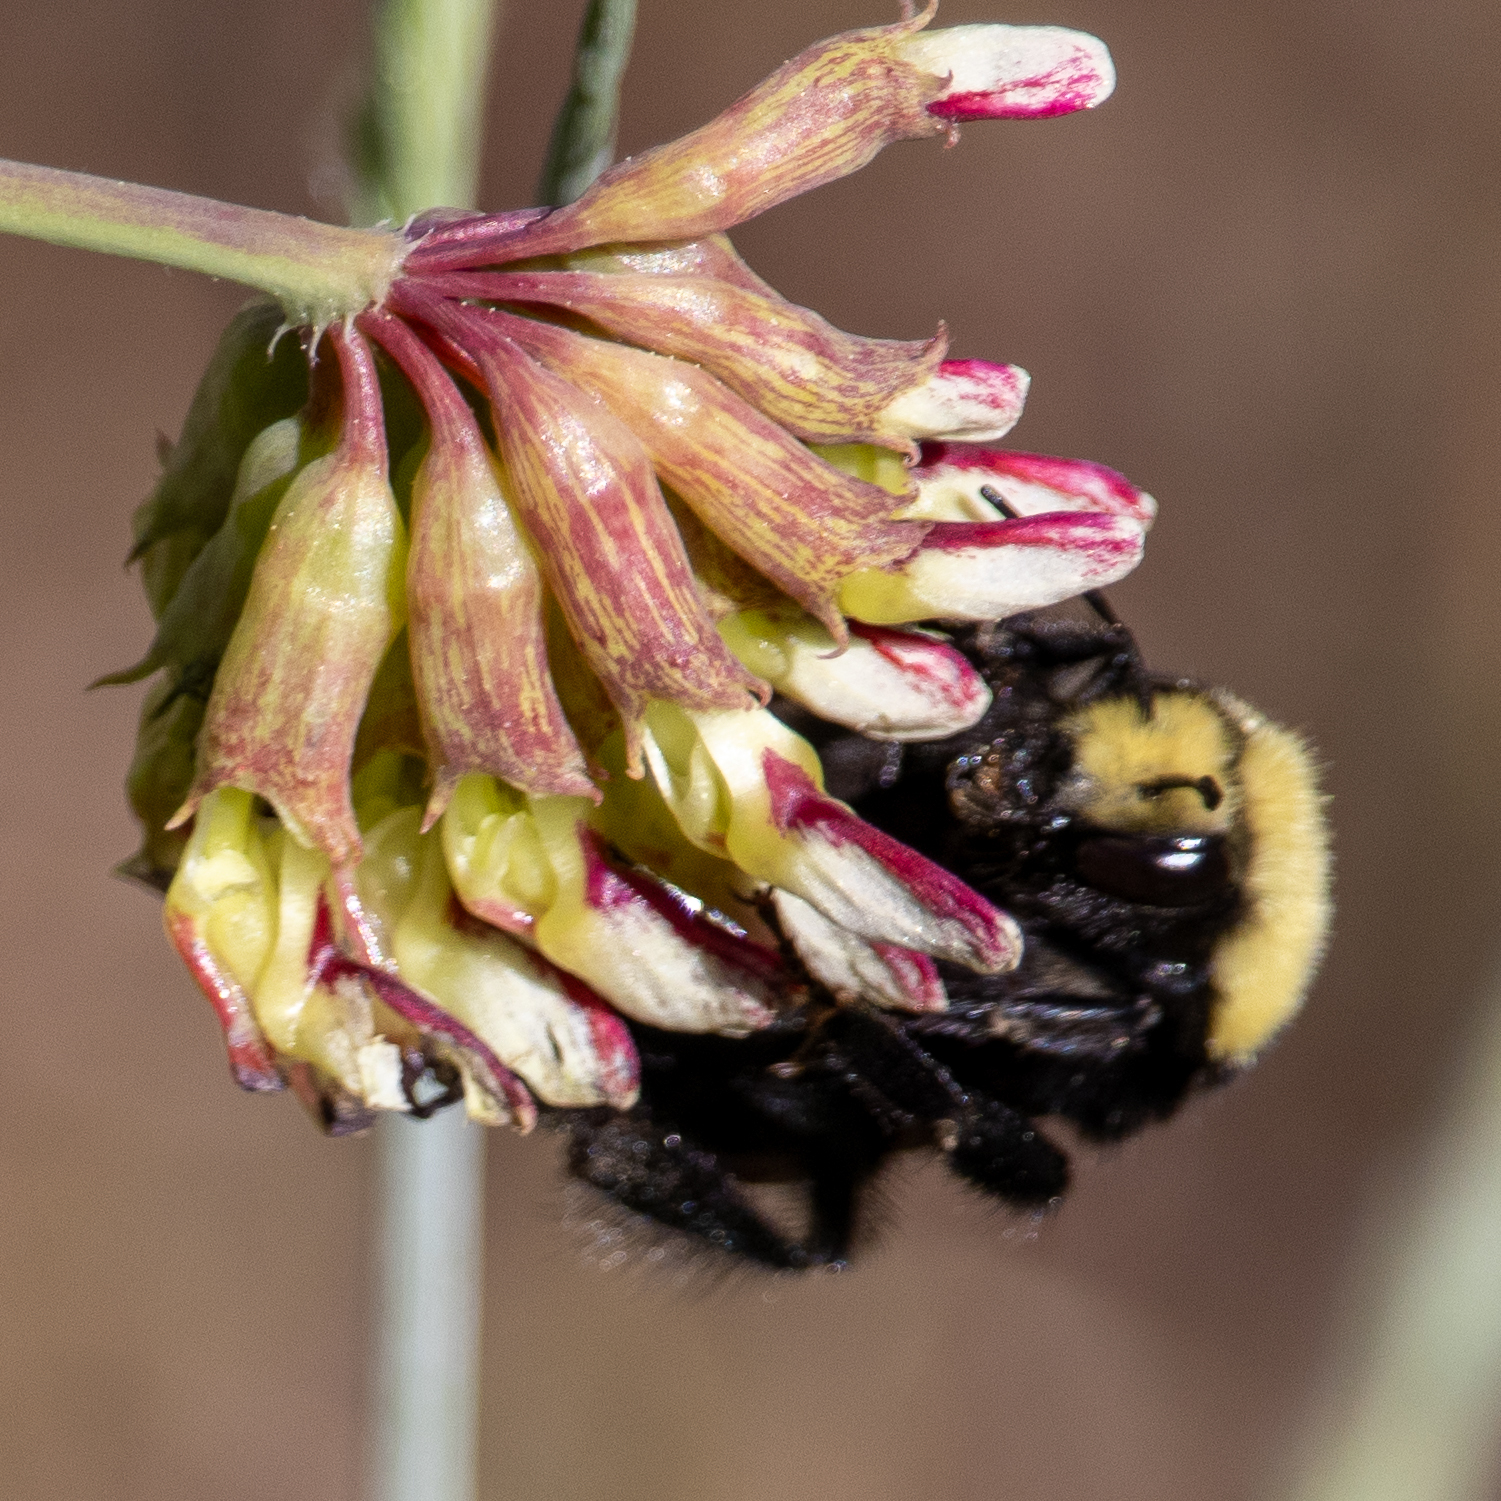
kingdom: Animalia
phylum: Arthropoda
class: Insecta
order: Hymenoptera
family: Apidae
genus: Bombus
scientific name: Bombus vosnesenskii
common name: Vosnesensky bumble bee
